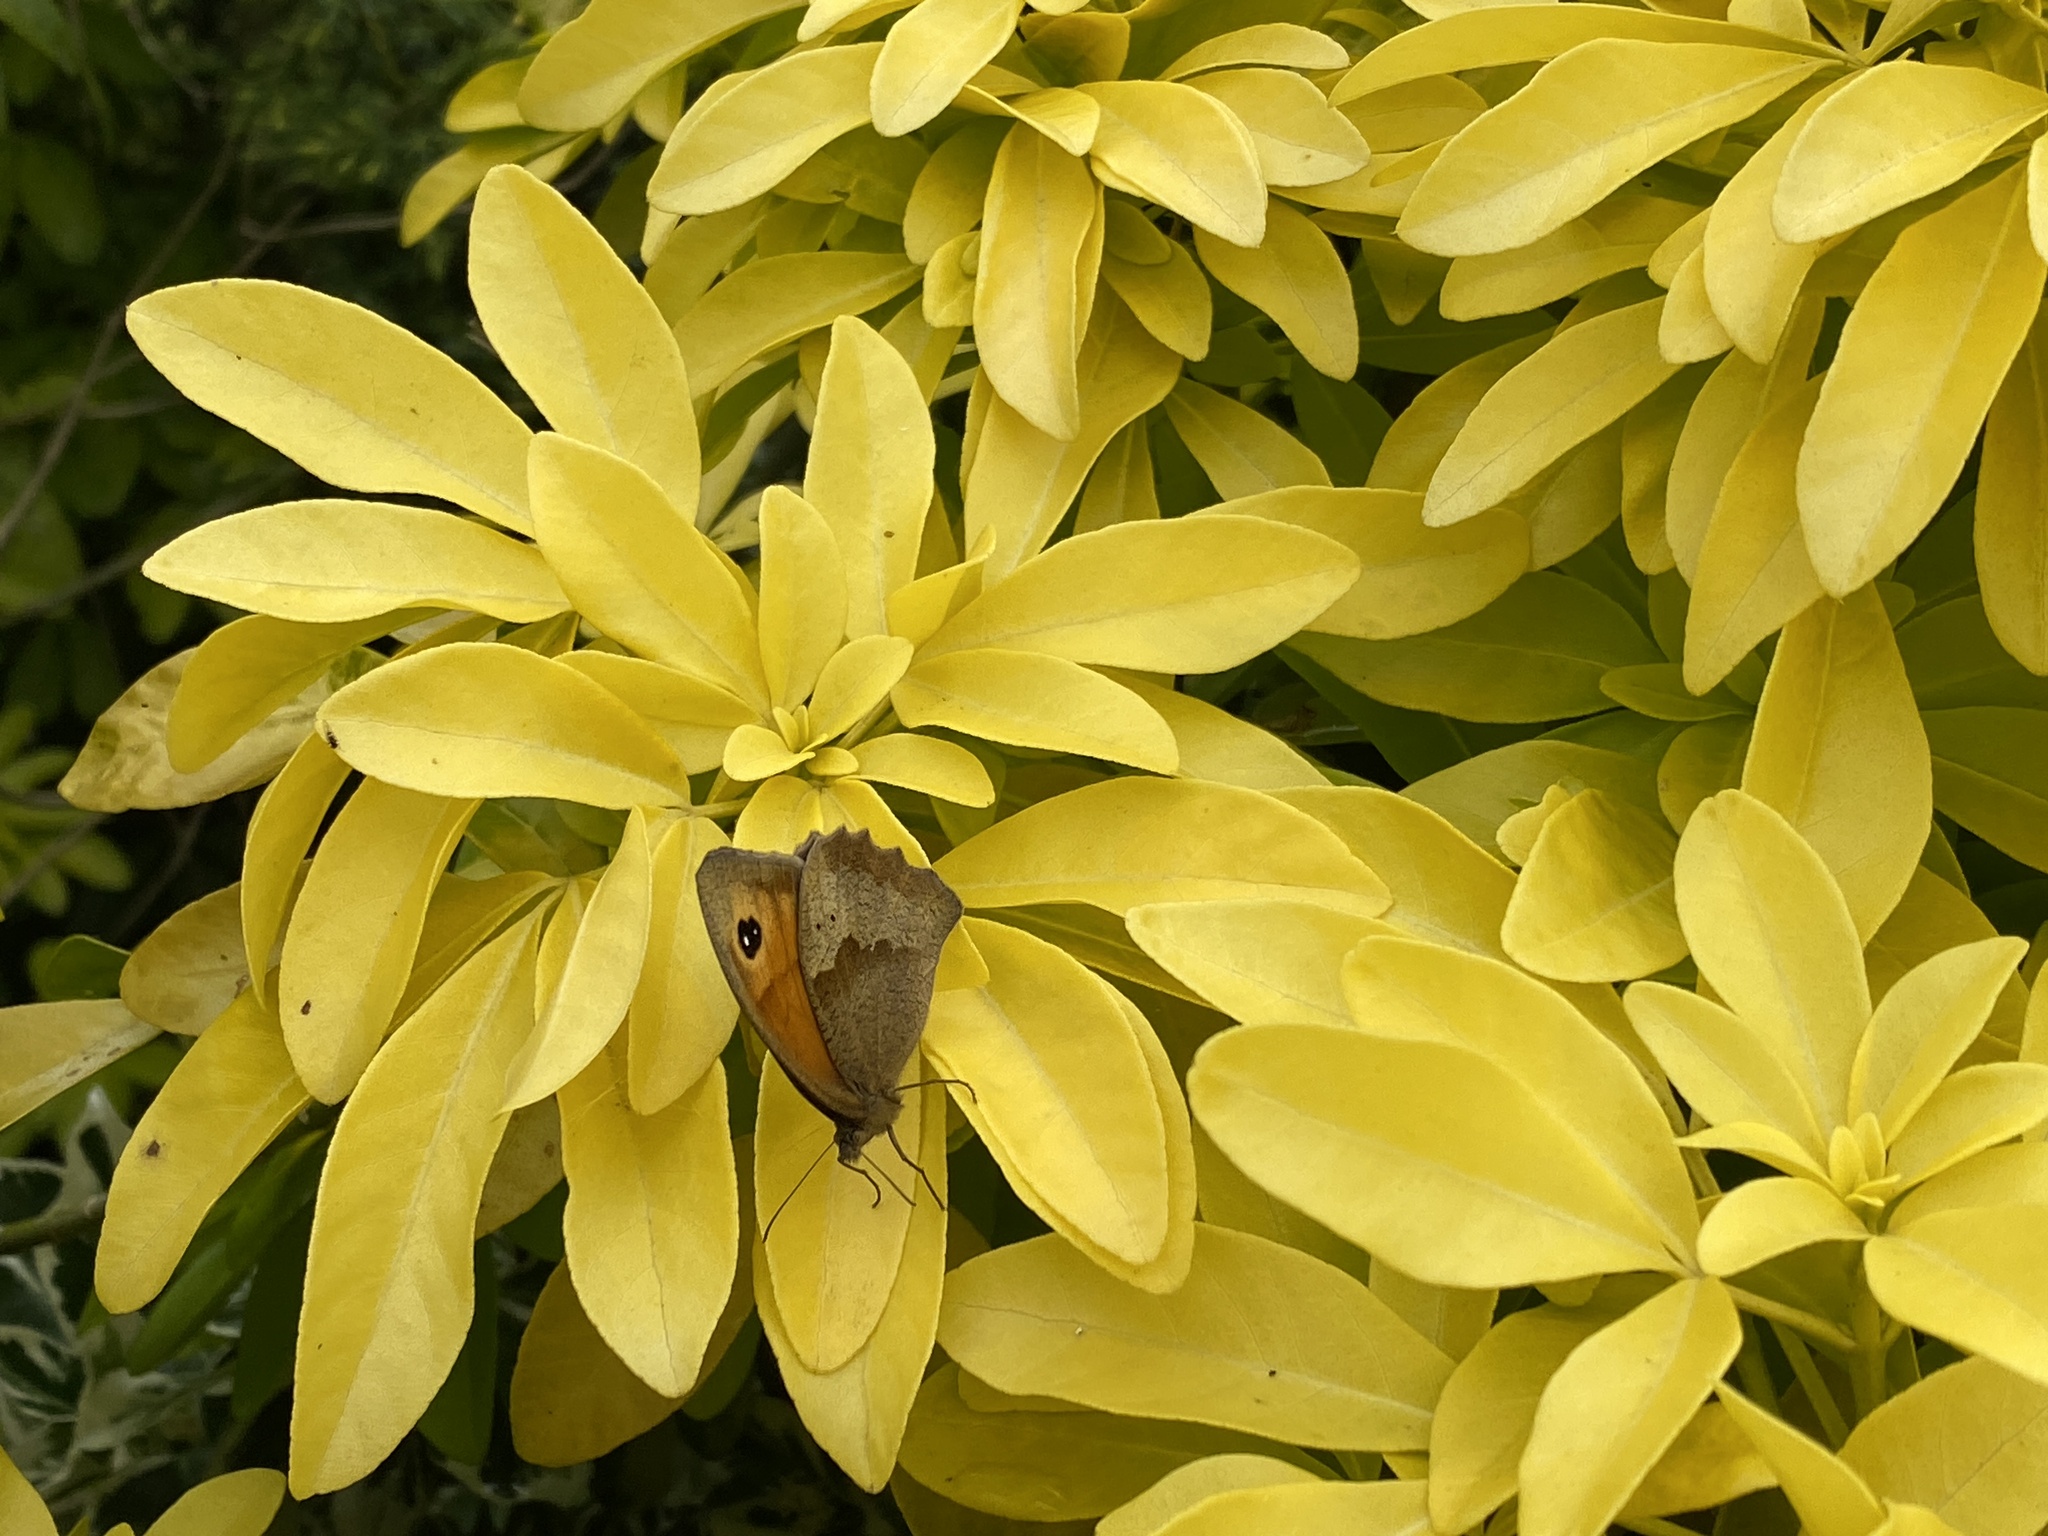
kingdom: Animalia
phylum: Arthropoda
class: Insecta
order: Lepidoptera
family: Nymphalidae
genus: Maniola
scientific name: Maniola jurtina
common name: Meadow brown
